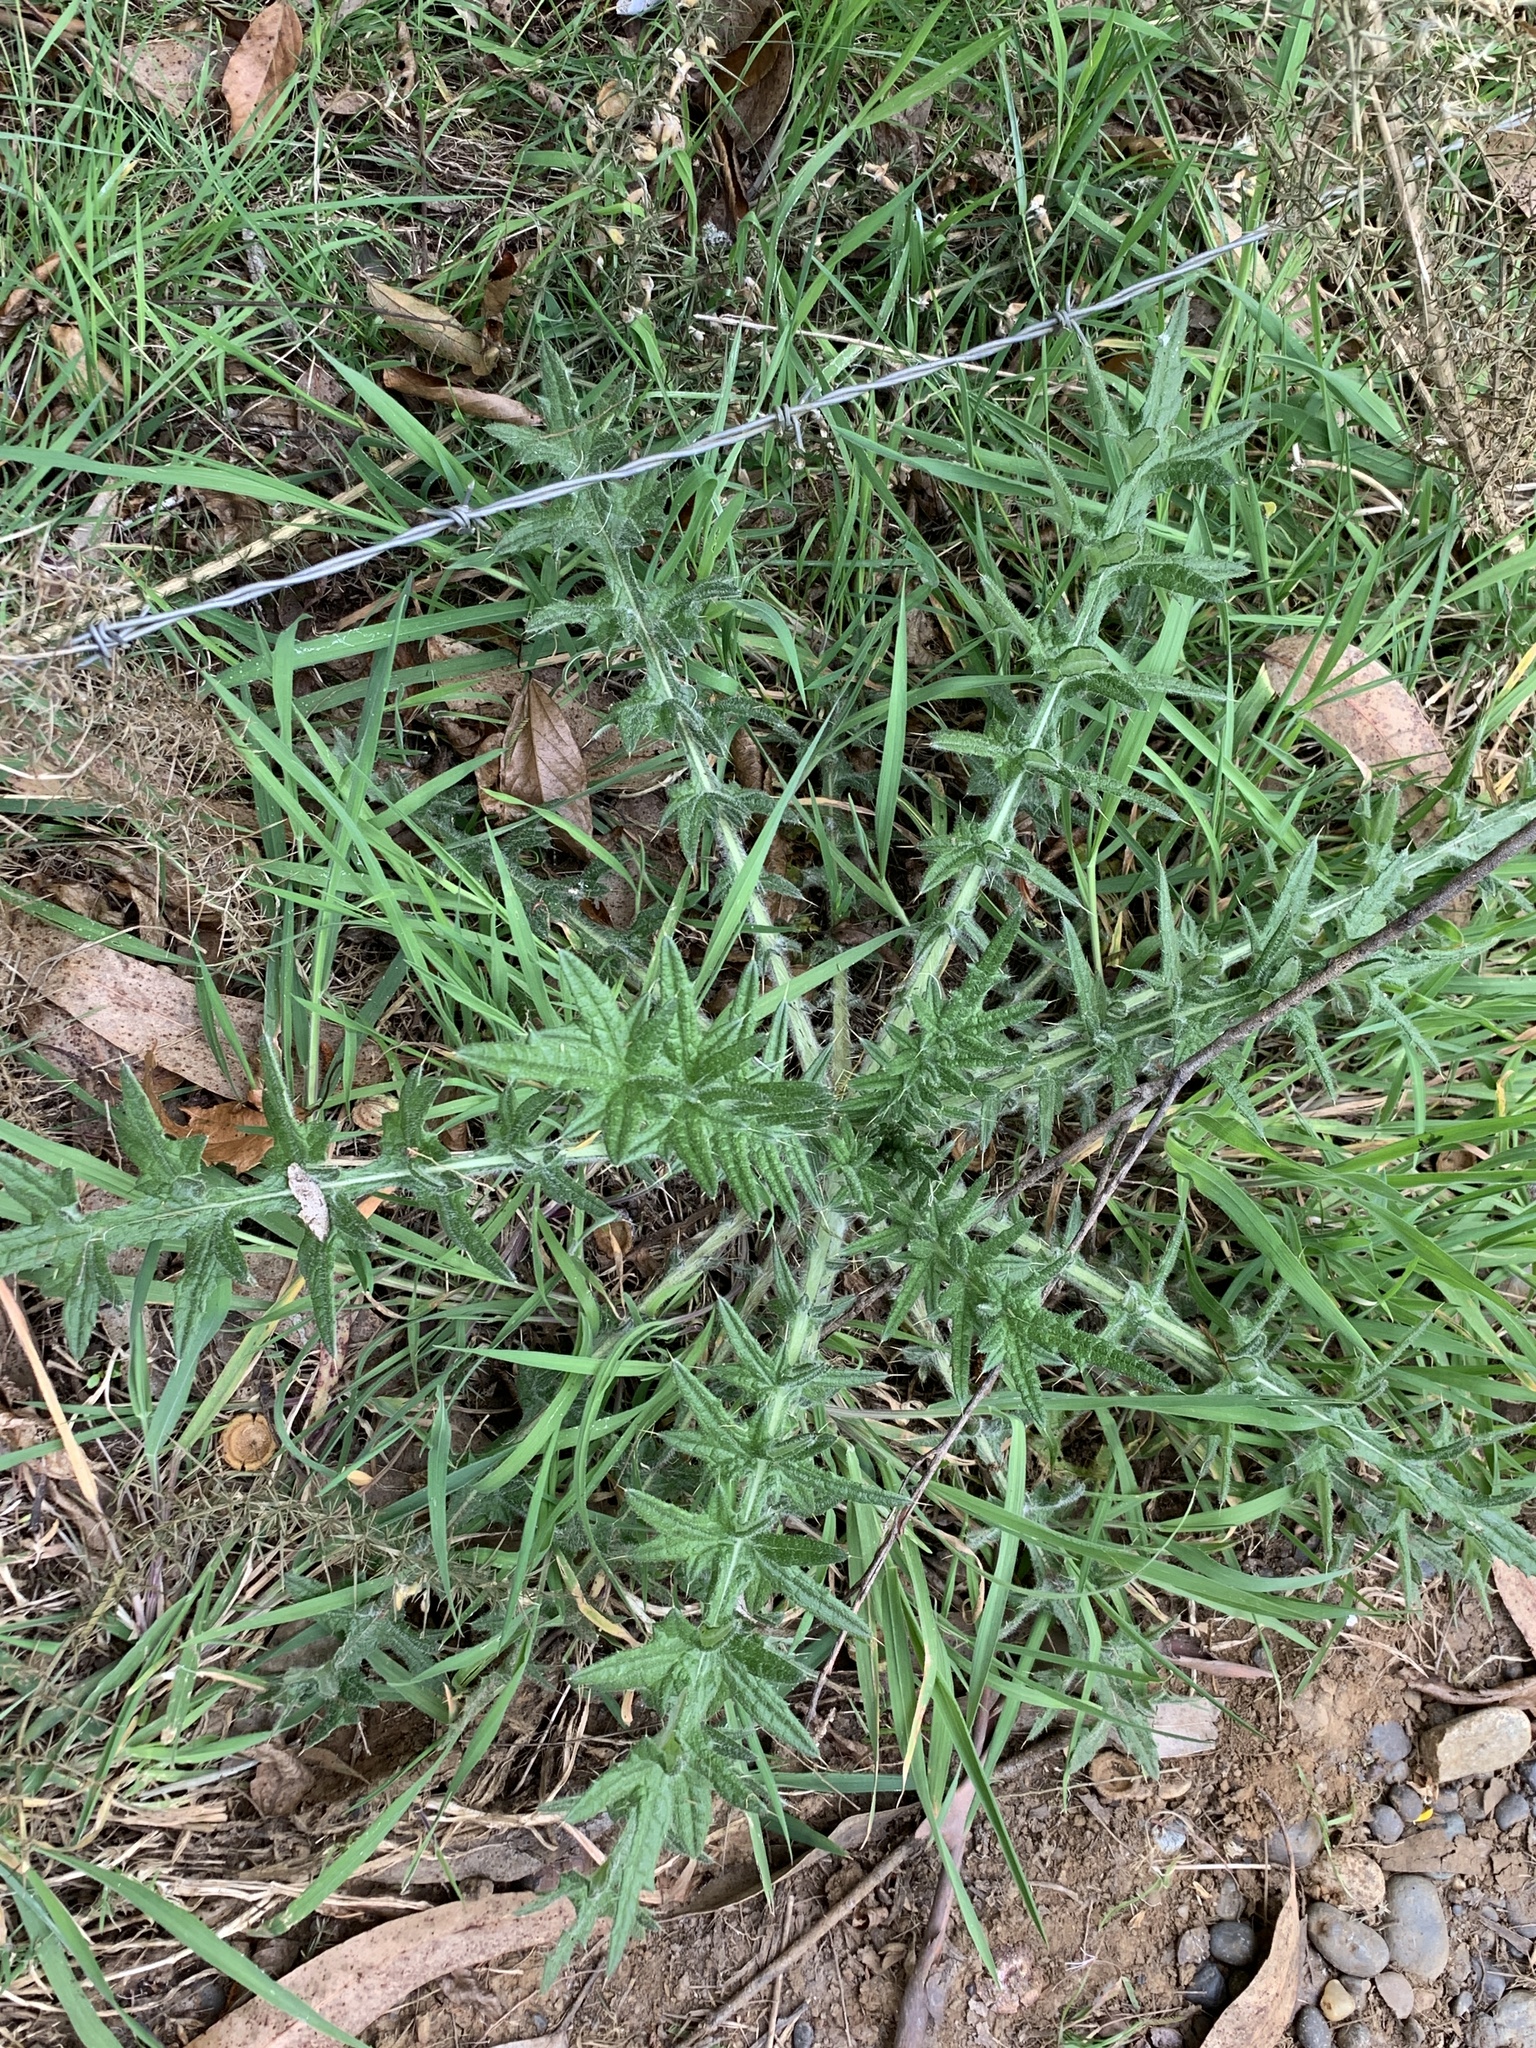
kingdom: Plantae
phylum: Tracheophyta
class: Magnoliopsida
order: Asterales
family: Asteraceae
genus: Cirsium
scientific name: Cirsium vulgare
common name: Bull thistle
